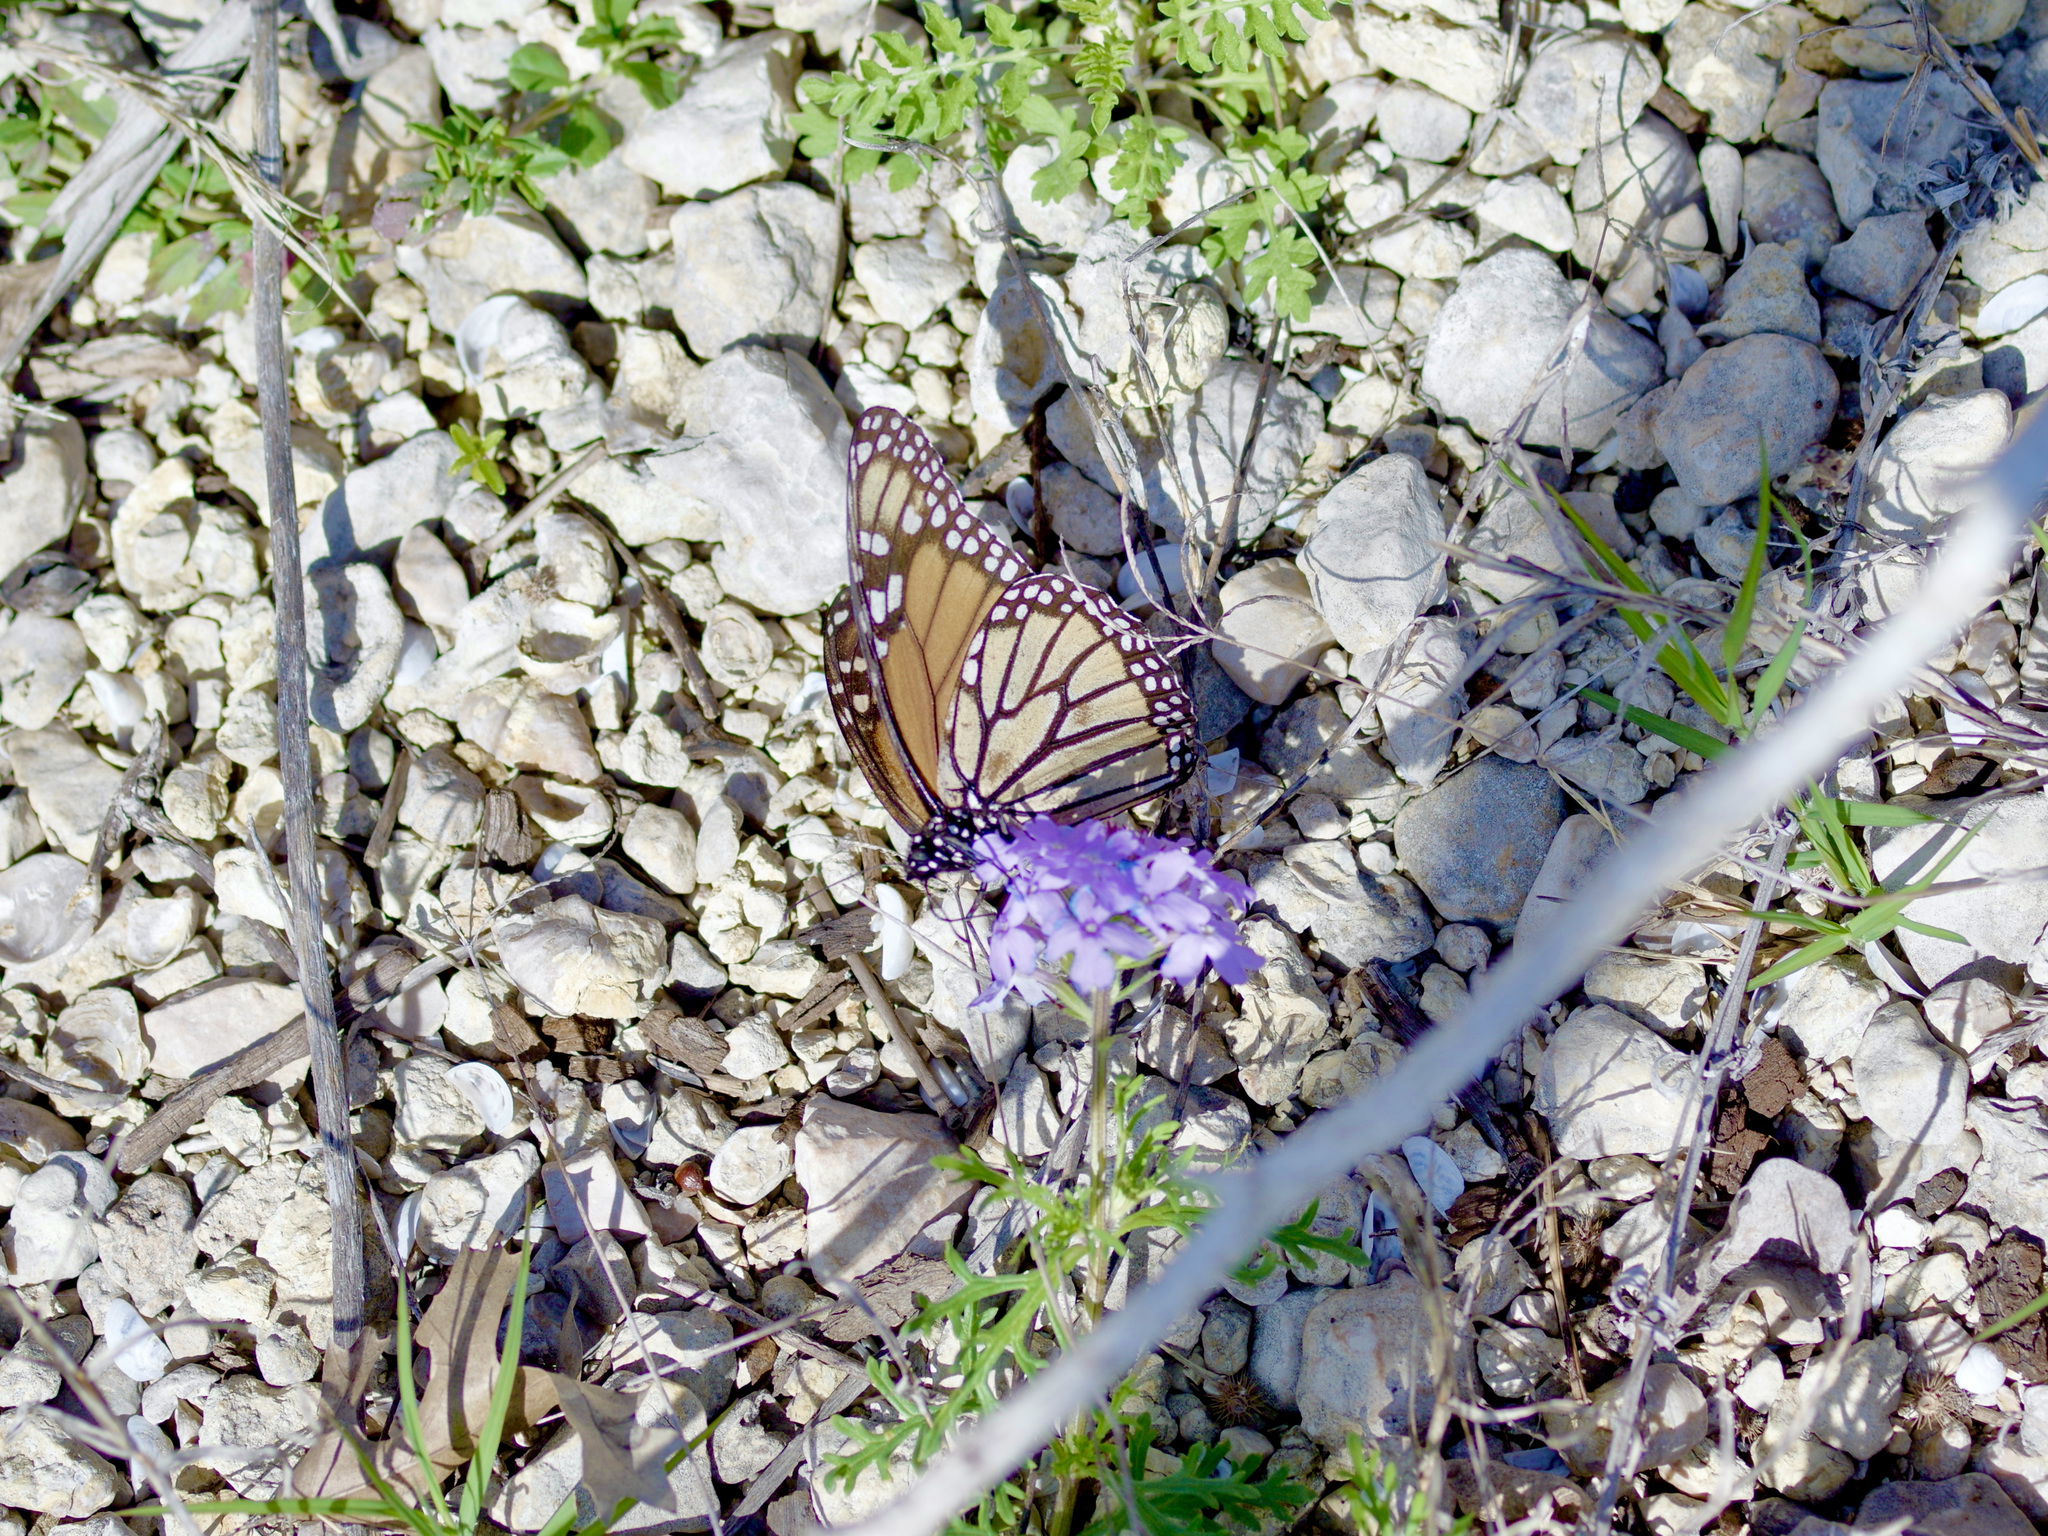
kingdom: Animalia
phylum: Arthropoda
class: Insecta
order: Lepidoptera
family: Nymphalidae
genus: Danaus
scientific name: Danaus plexippus
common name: Monarch
